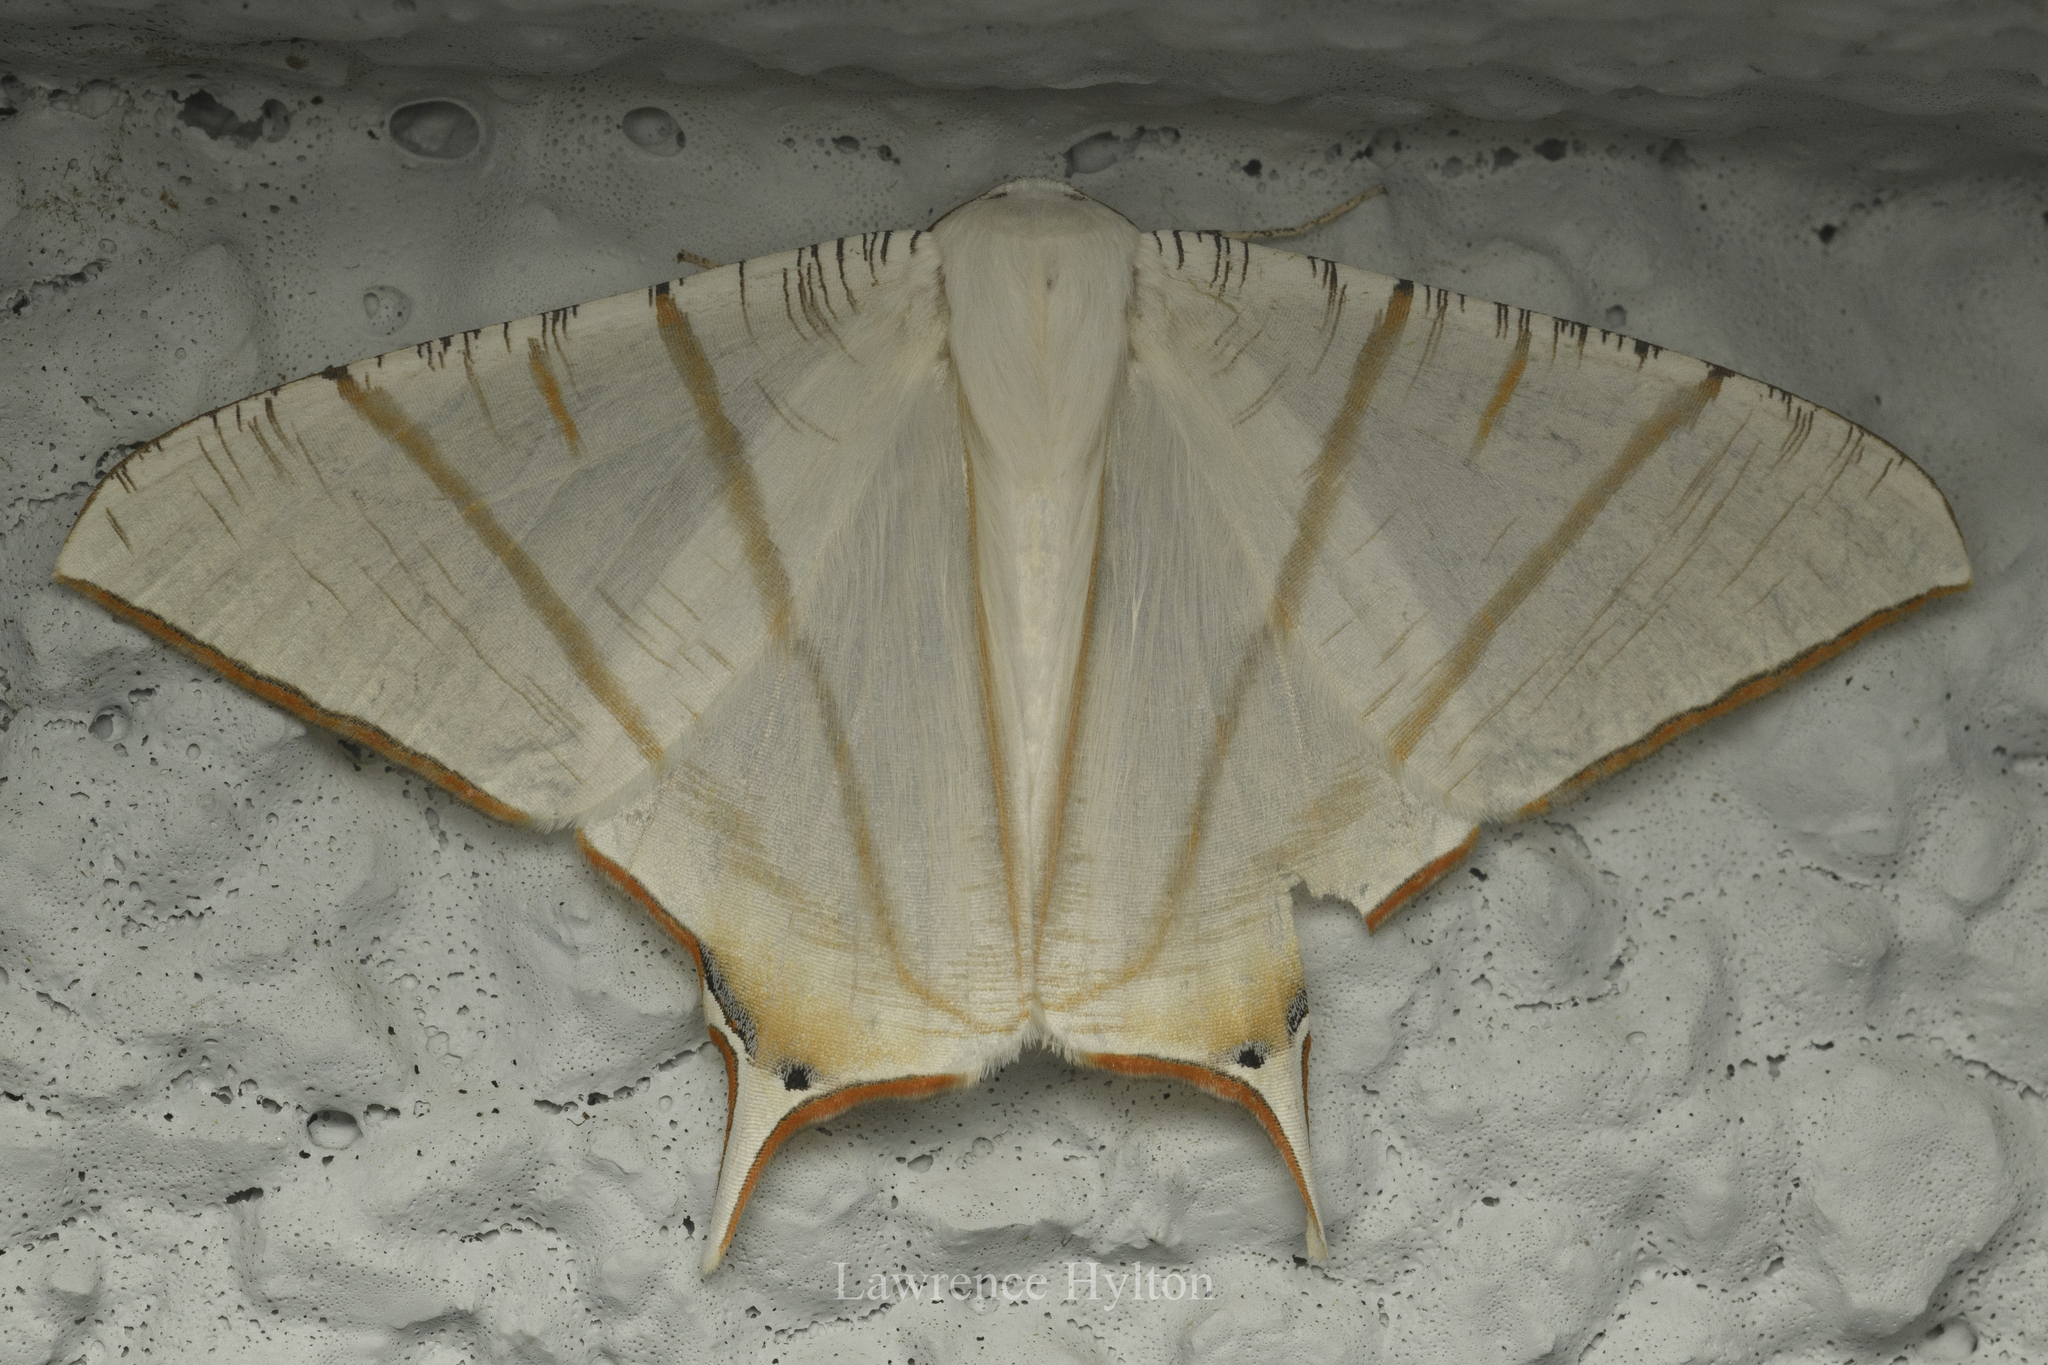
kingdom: Animalia
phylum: Arthropoda
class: Insecta
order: Lepidoptera
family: Geometridae
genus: Ourapteryx
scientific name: Ourapteryx clara
